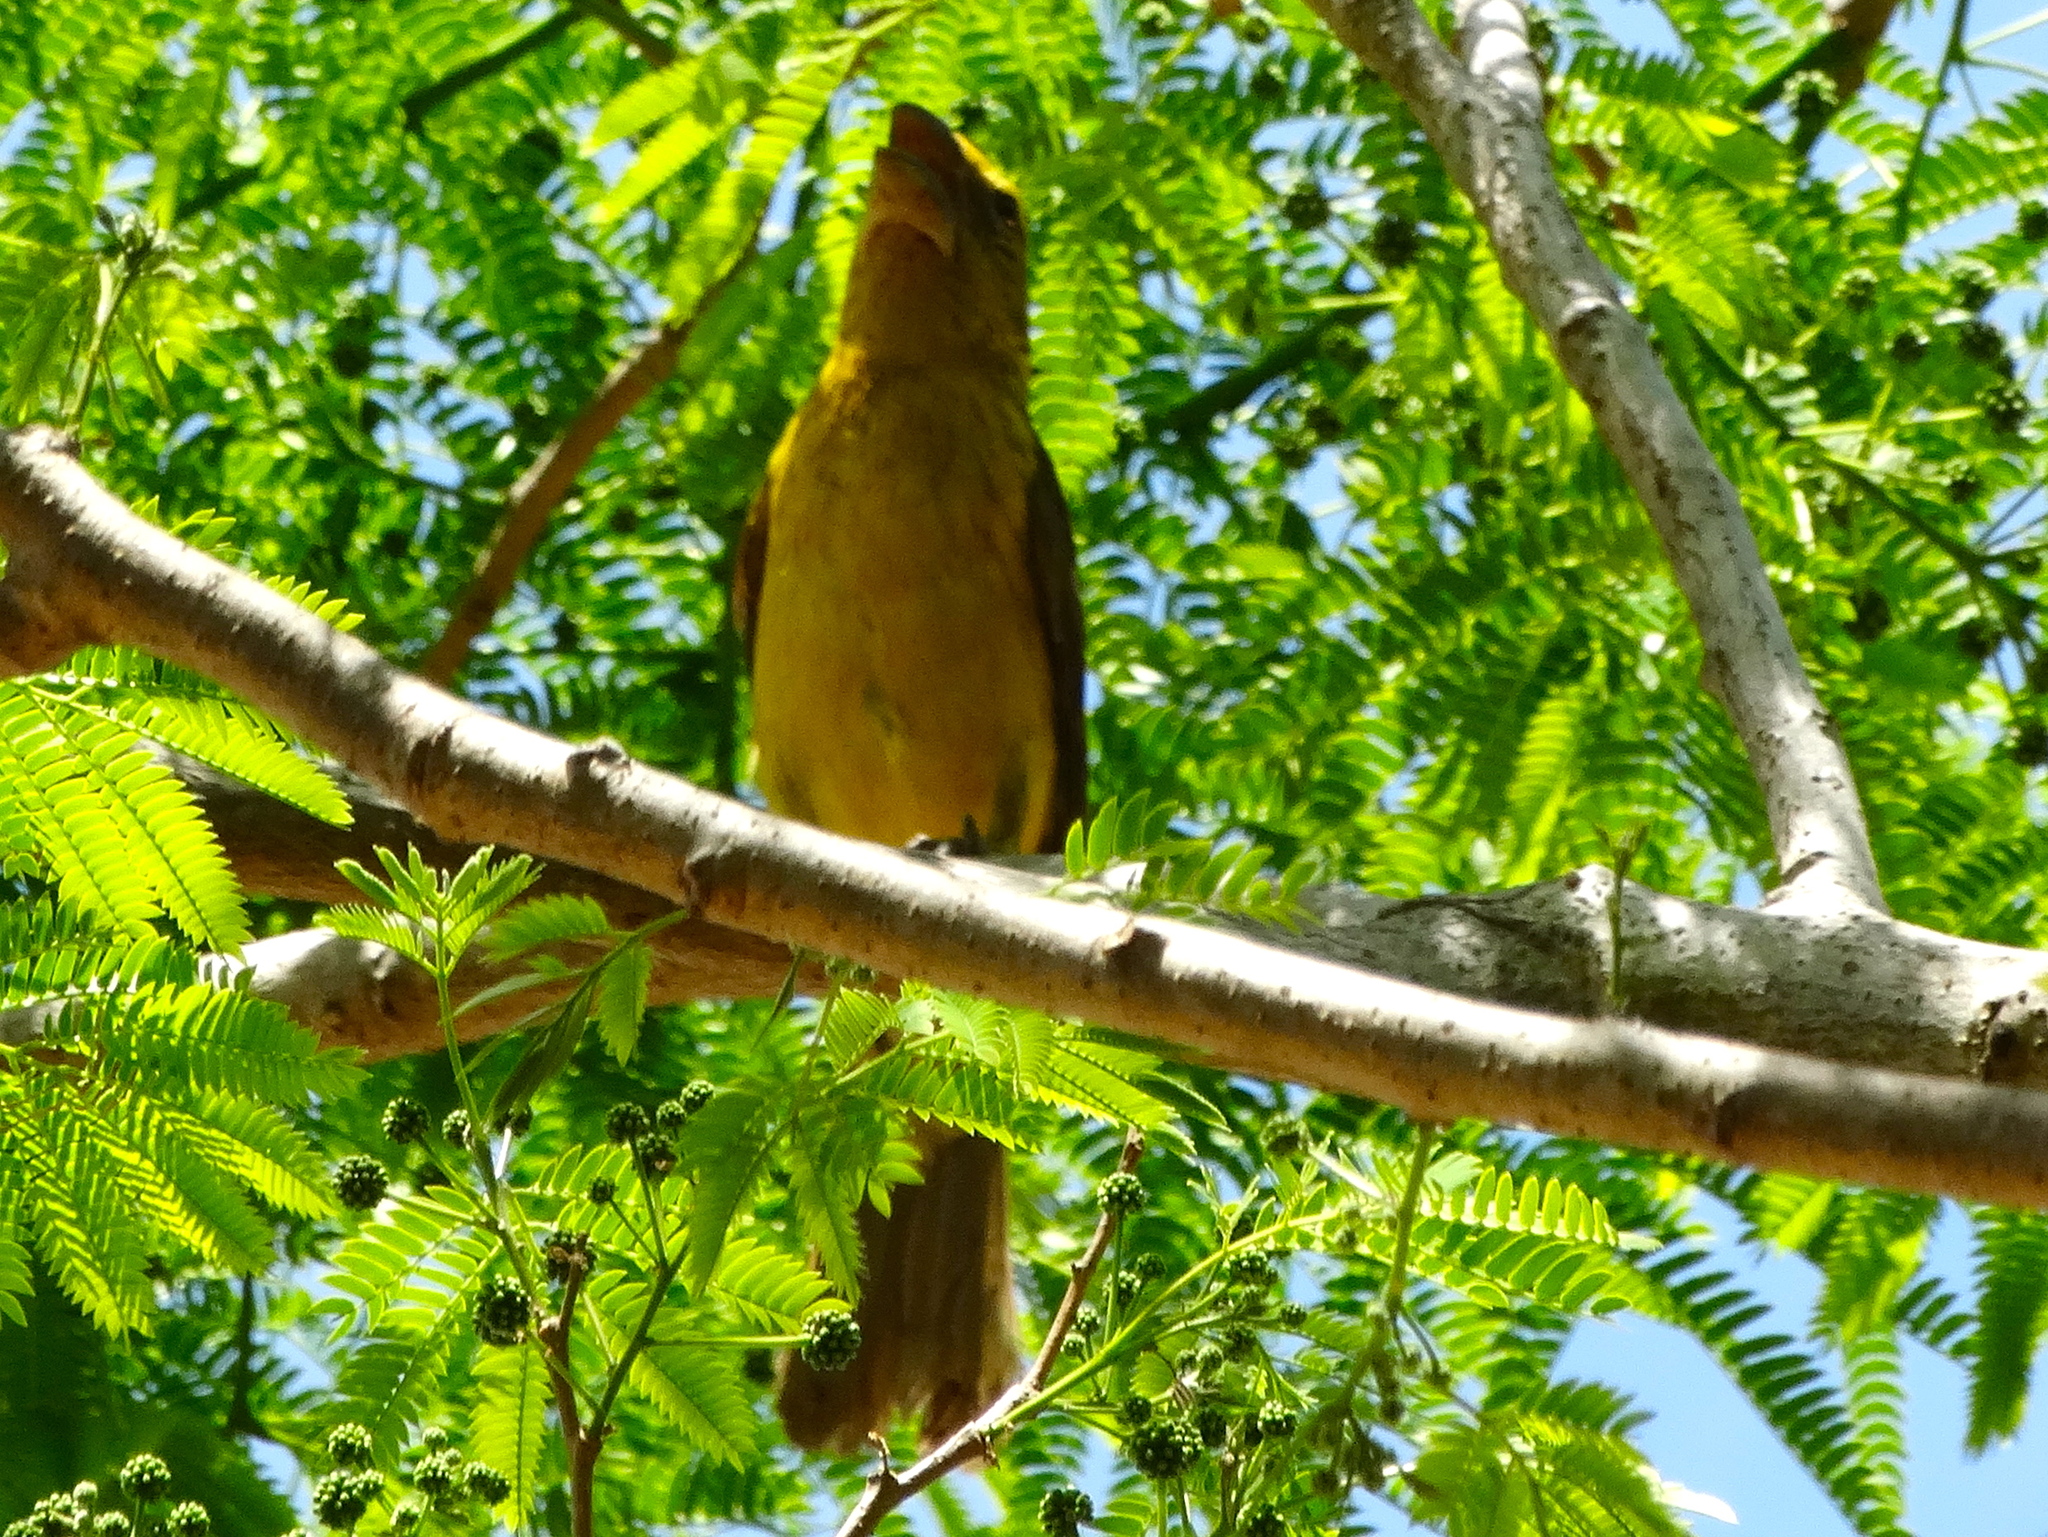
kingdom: Animalia
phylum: Chordata
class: Aves
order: Passeriformes
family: Cardinalidae
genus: Pheucticus
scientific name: Pheucticus chrysopeplus
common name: Yellow grosbeak
